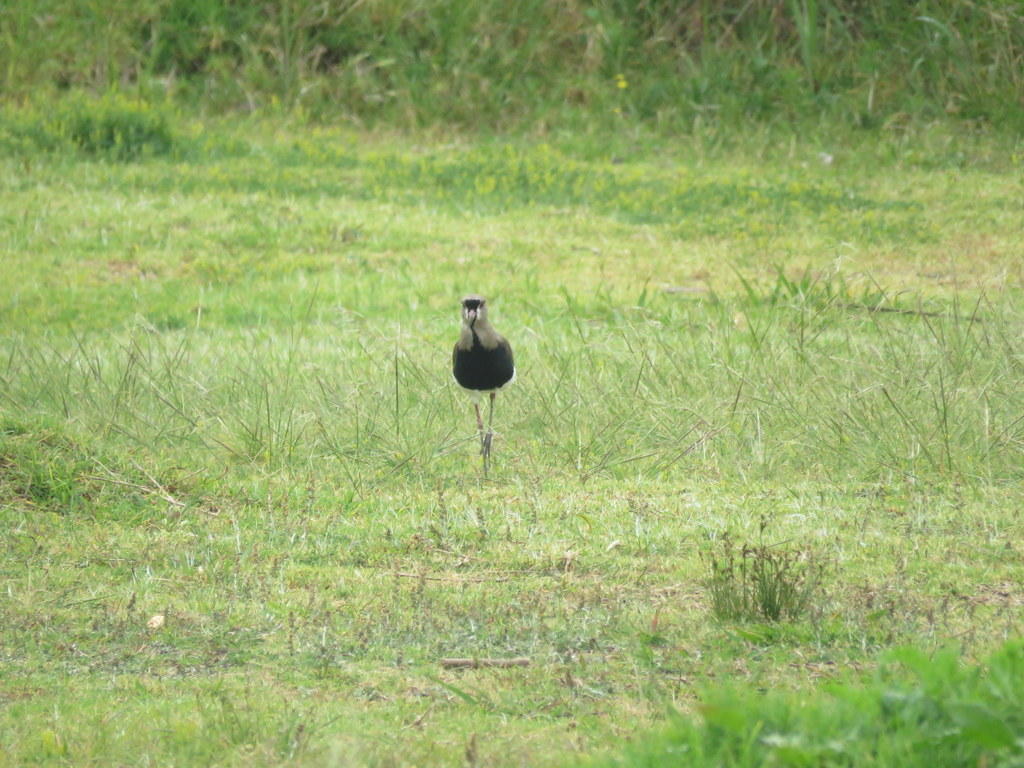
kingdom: Animalia
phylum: Chordata
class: Aves
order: Charadriiformes
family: Charadriidae
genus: Vanellus
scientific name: Vanellus chilensis
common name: Southern lapwing
